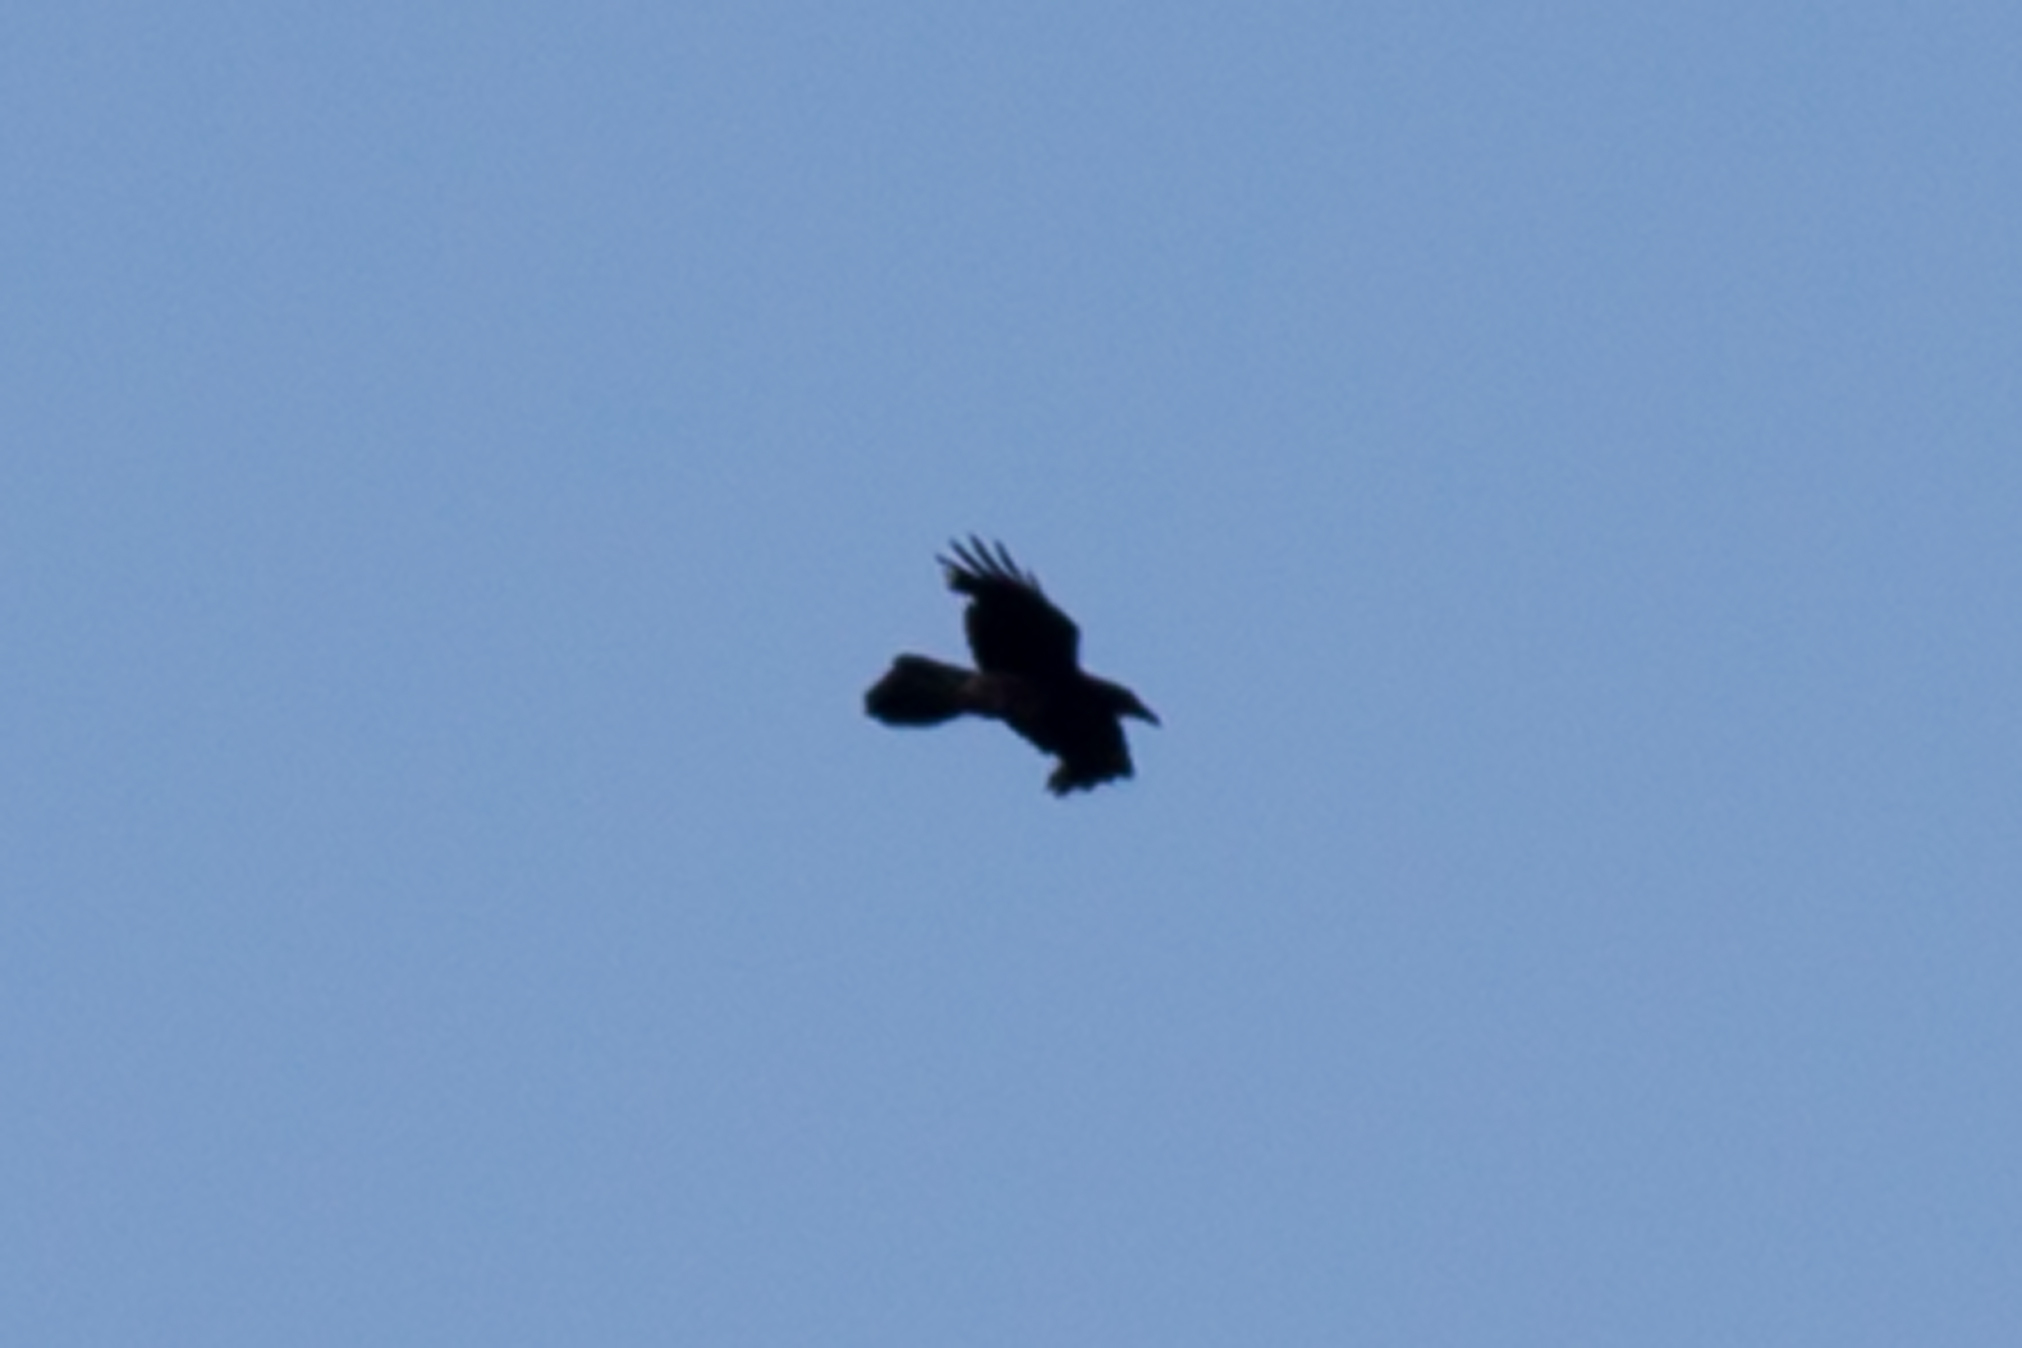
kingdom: Animalia
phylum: Chordata
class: Aves
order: Passeriformes
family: Corvidae
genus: Corvus
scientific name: Corvus corax
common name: Common raven
